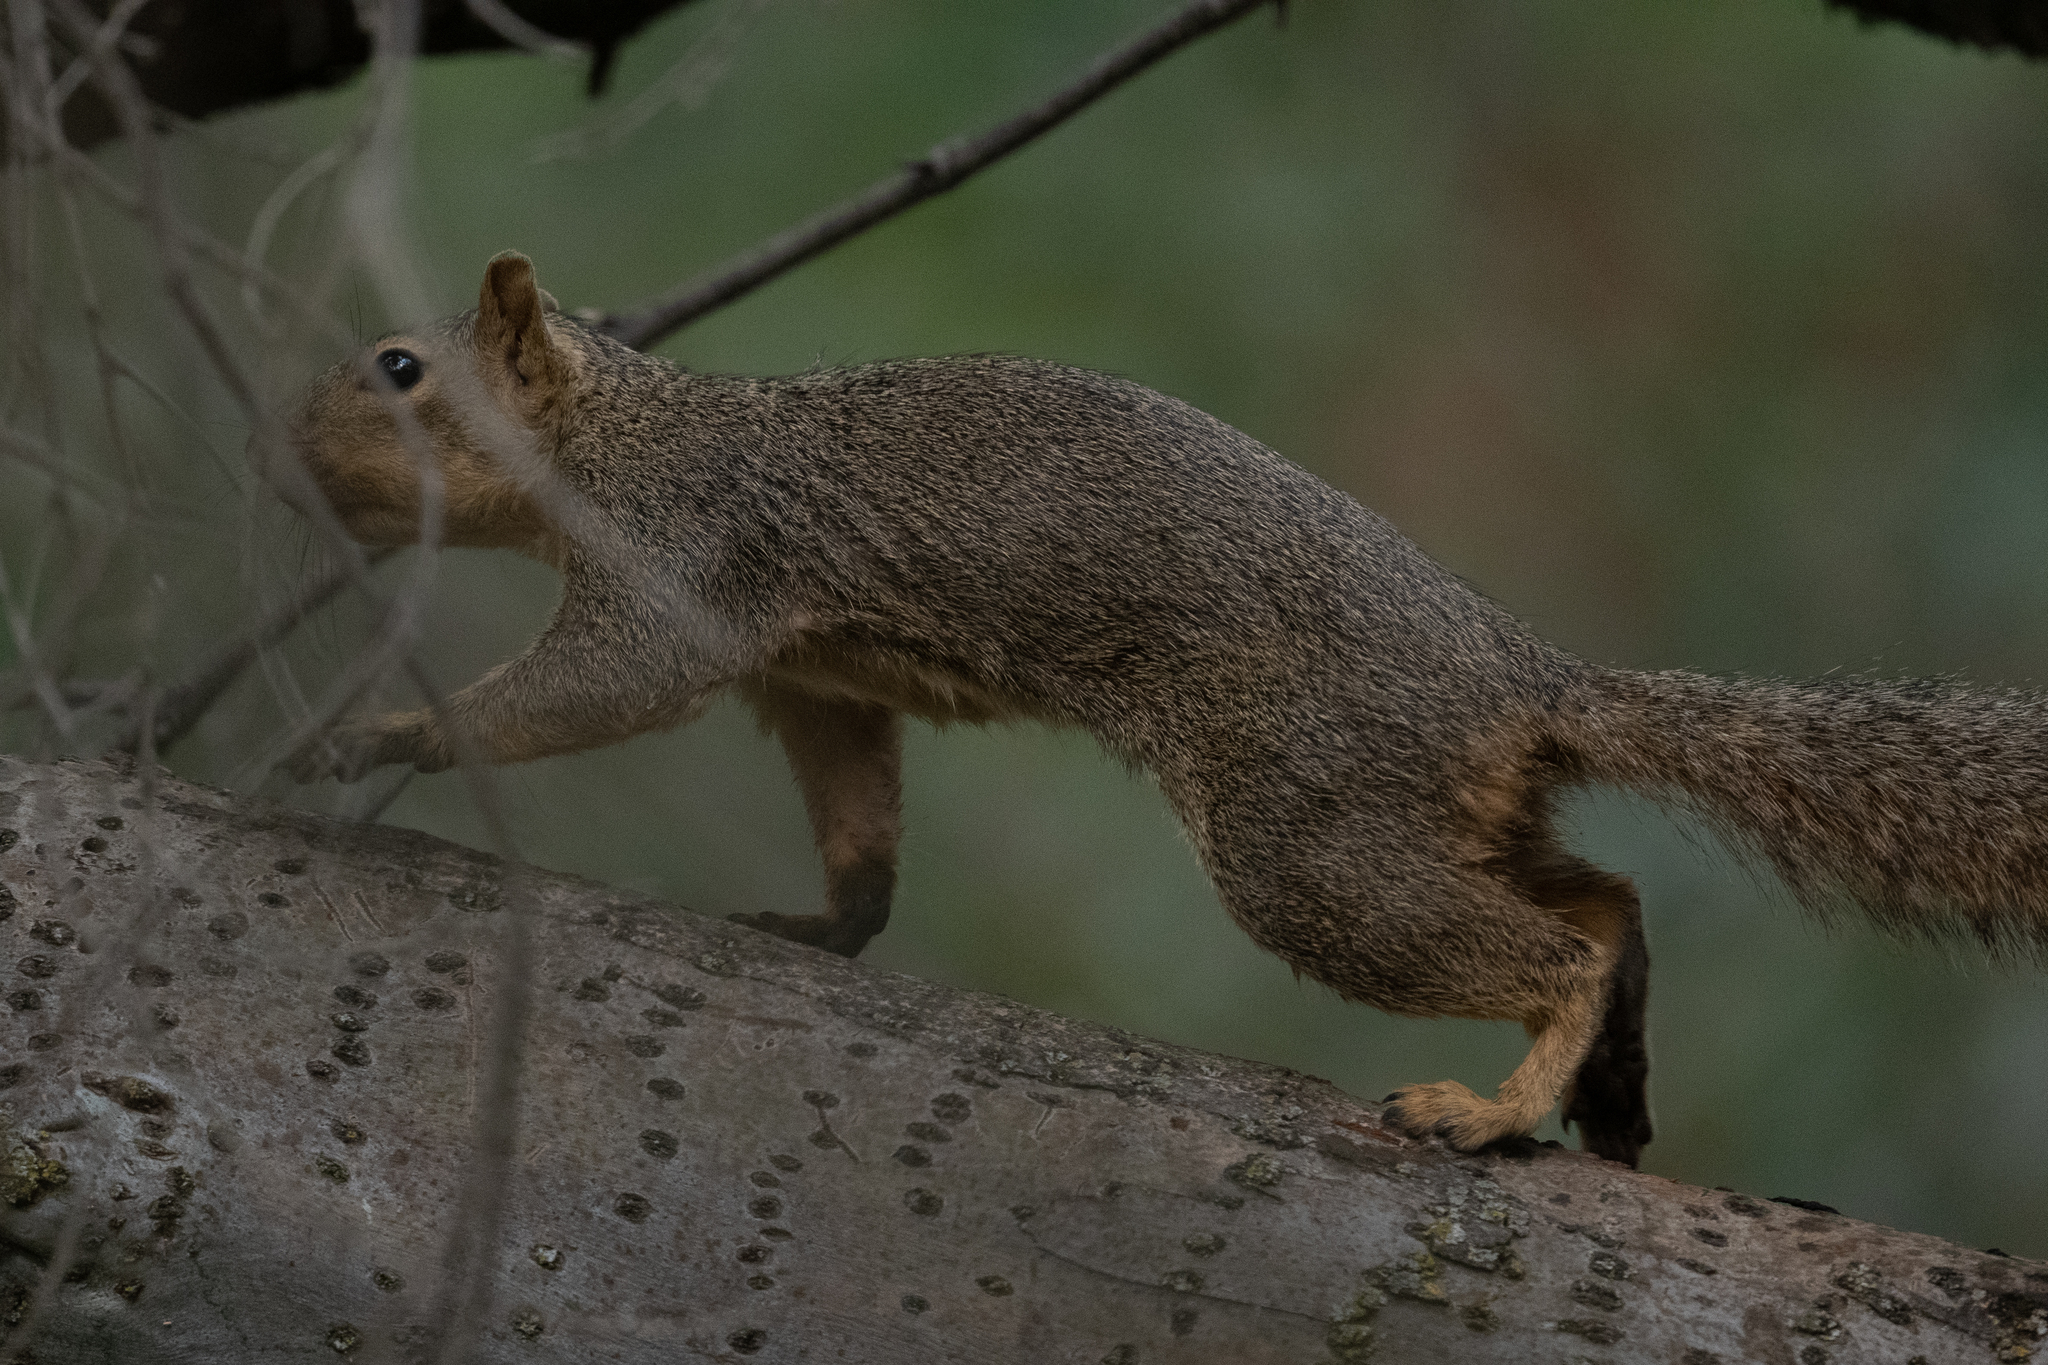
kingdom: Animalia
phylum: Chordata
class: Mammalia
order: Rodentia
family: Sciuridae
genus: Sciurus
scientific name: Sciurus niger
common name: Fox squirrel
